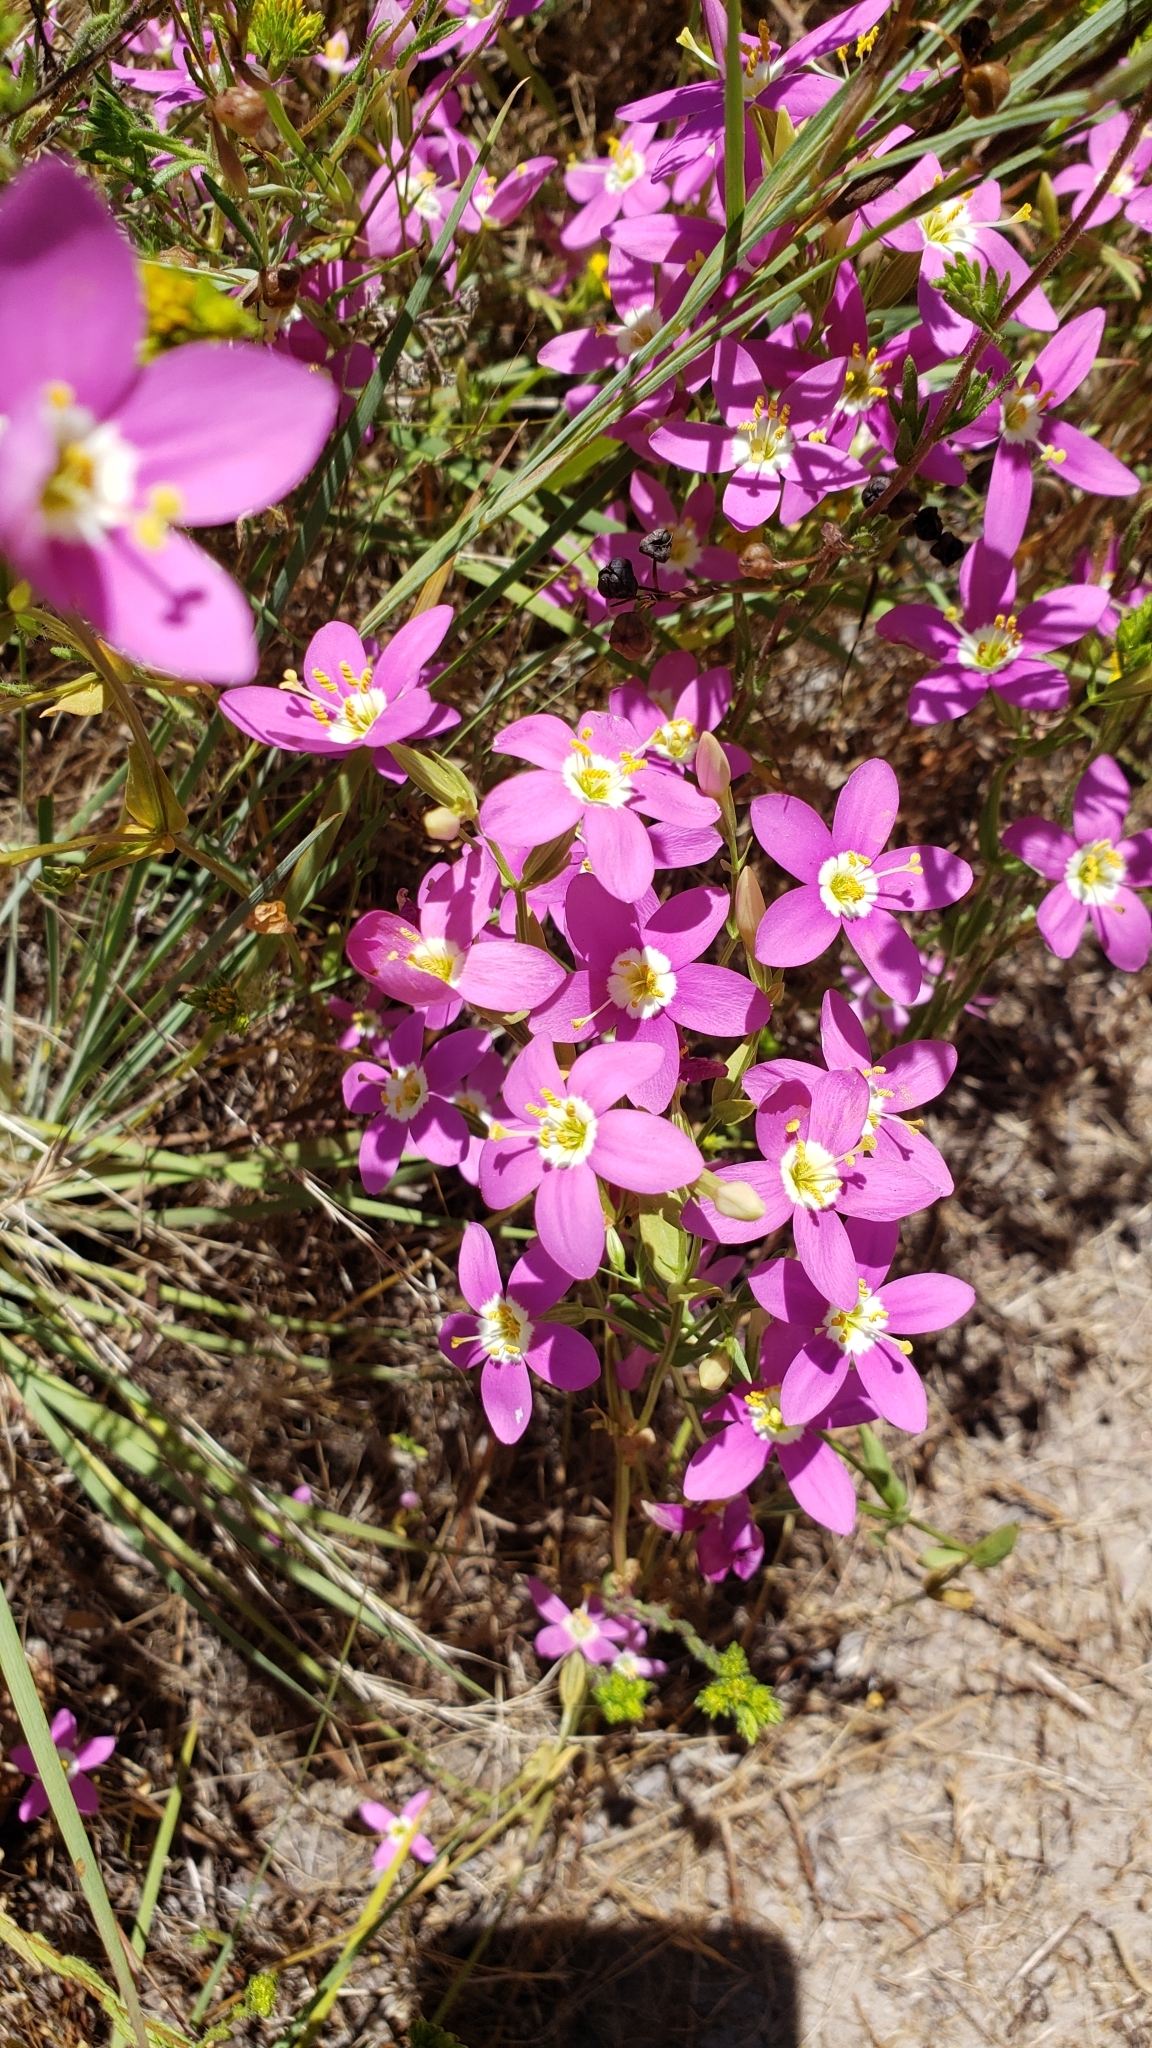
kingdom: Plantae
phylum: Tracheophyta
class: Magnoliopsida
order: Gentianales
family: Gentianaceae
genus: Zeltnera
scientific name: Zeltnera venusta
